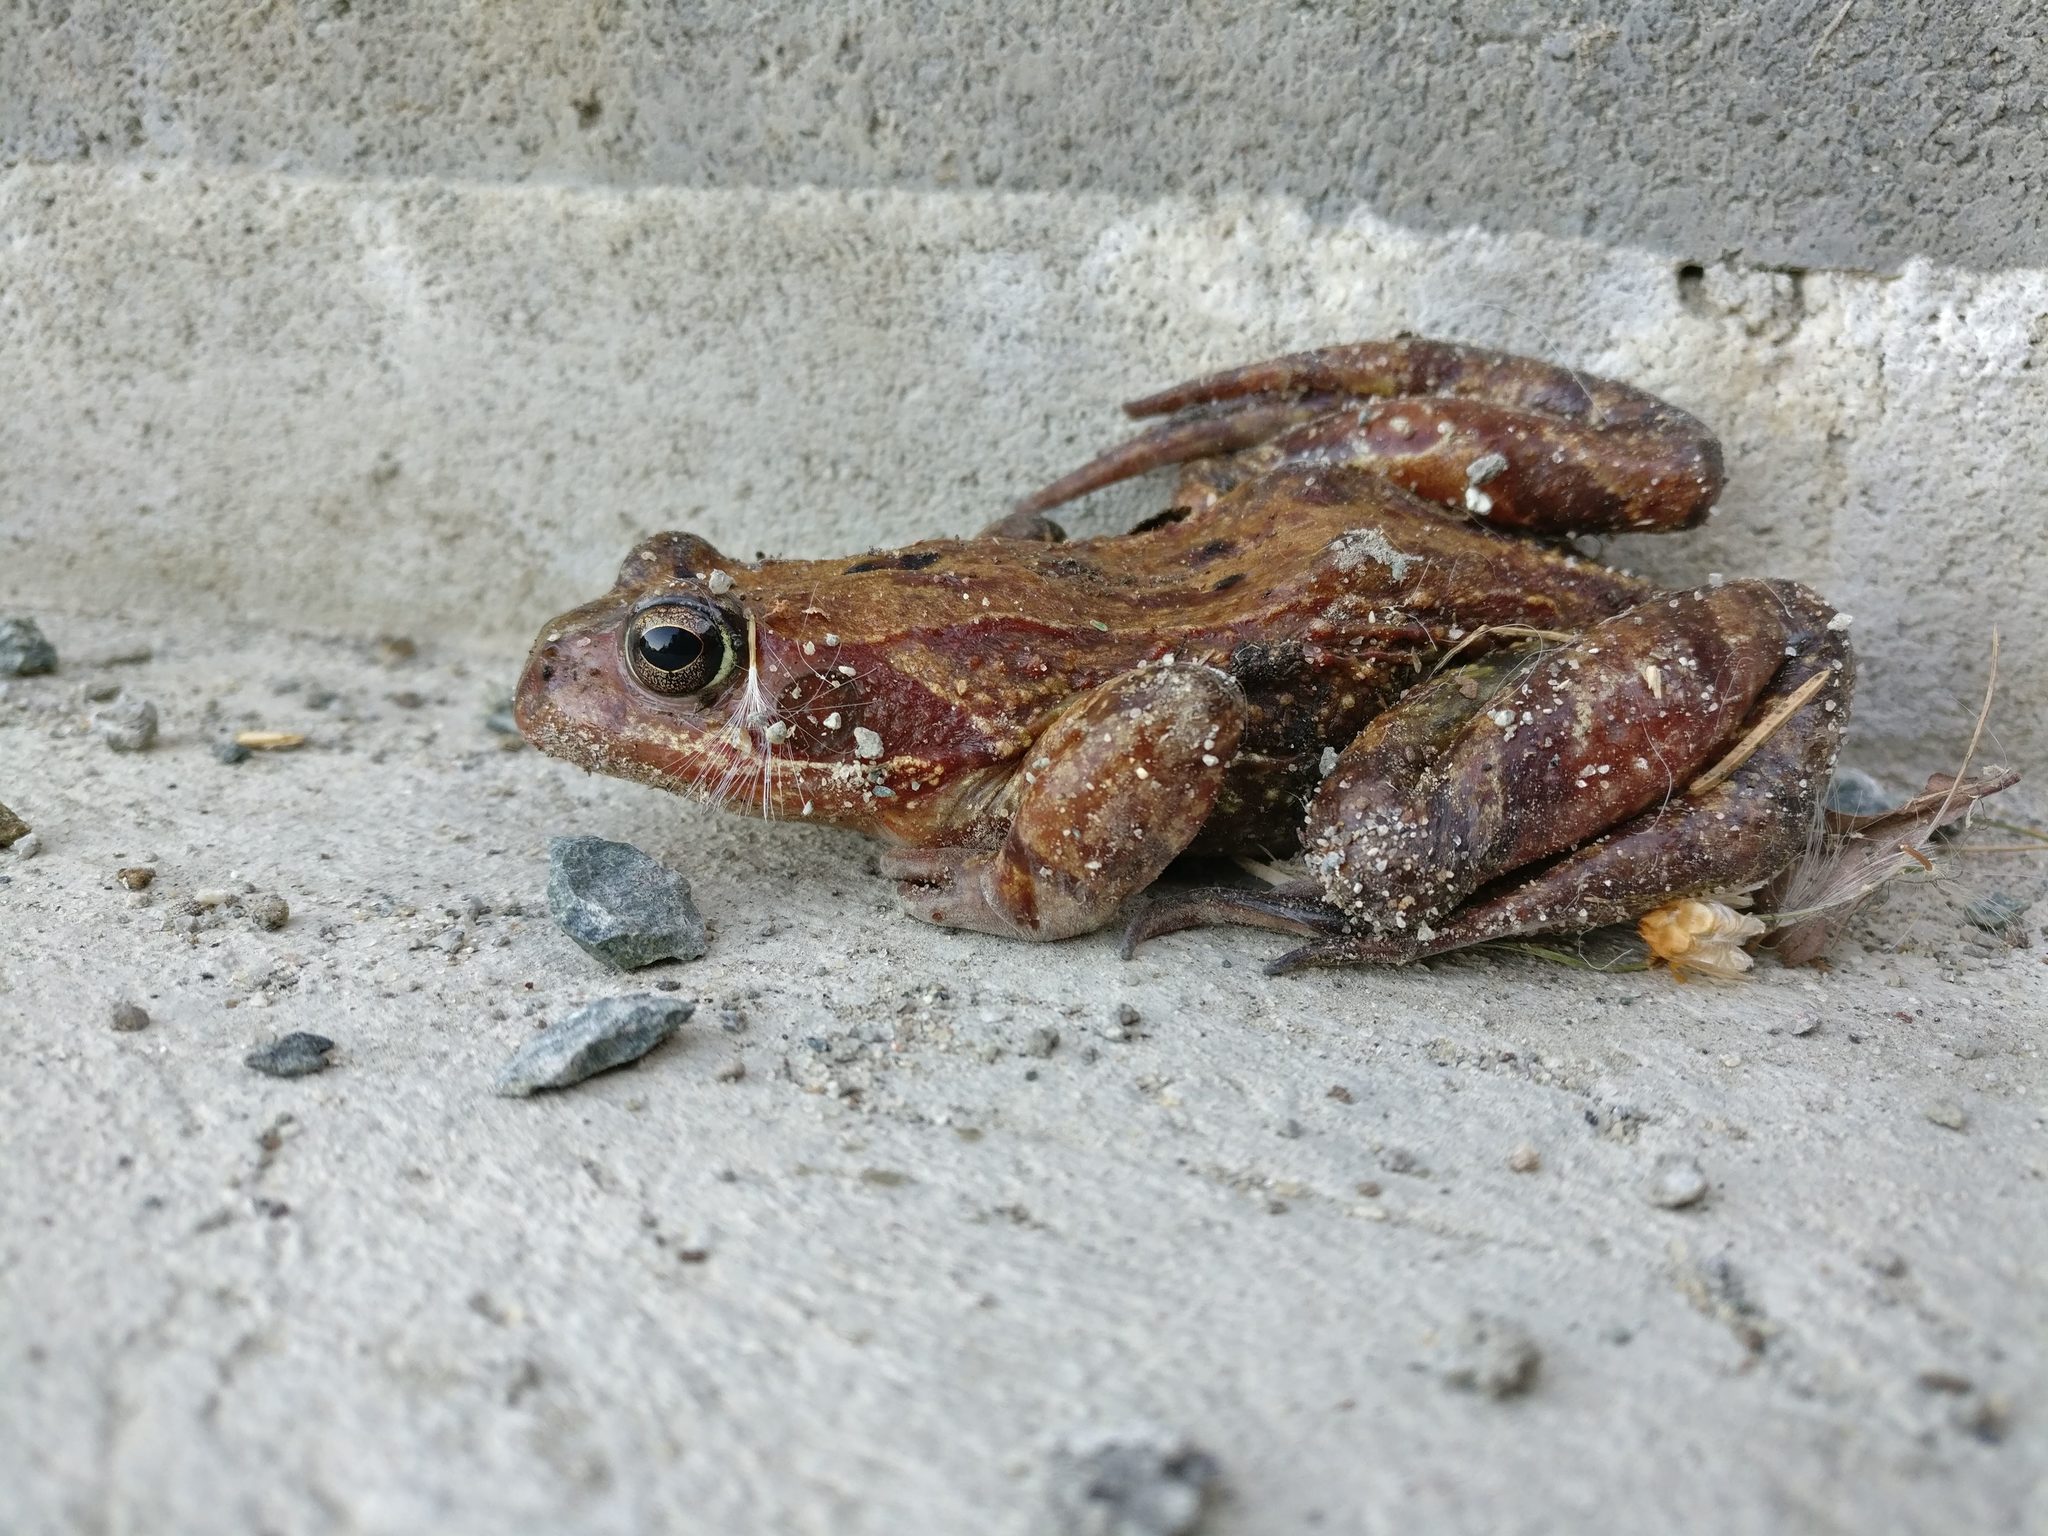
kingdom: Animalia
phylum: Chordata
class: Amphibia
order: Anura
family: Ranidae
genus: Rana
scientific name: Rana temporaria
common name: Common frog
